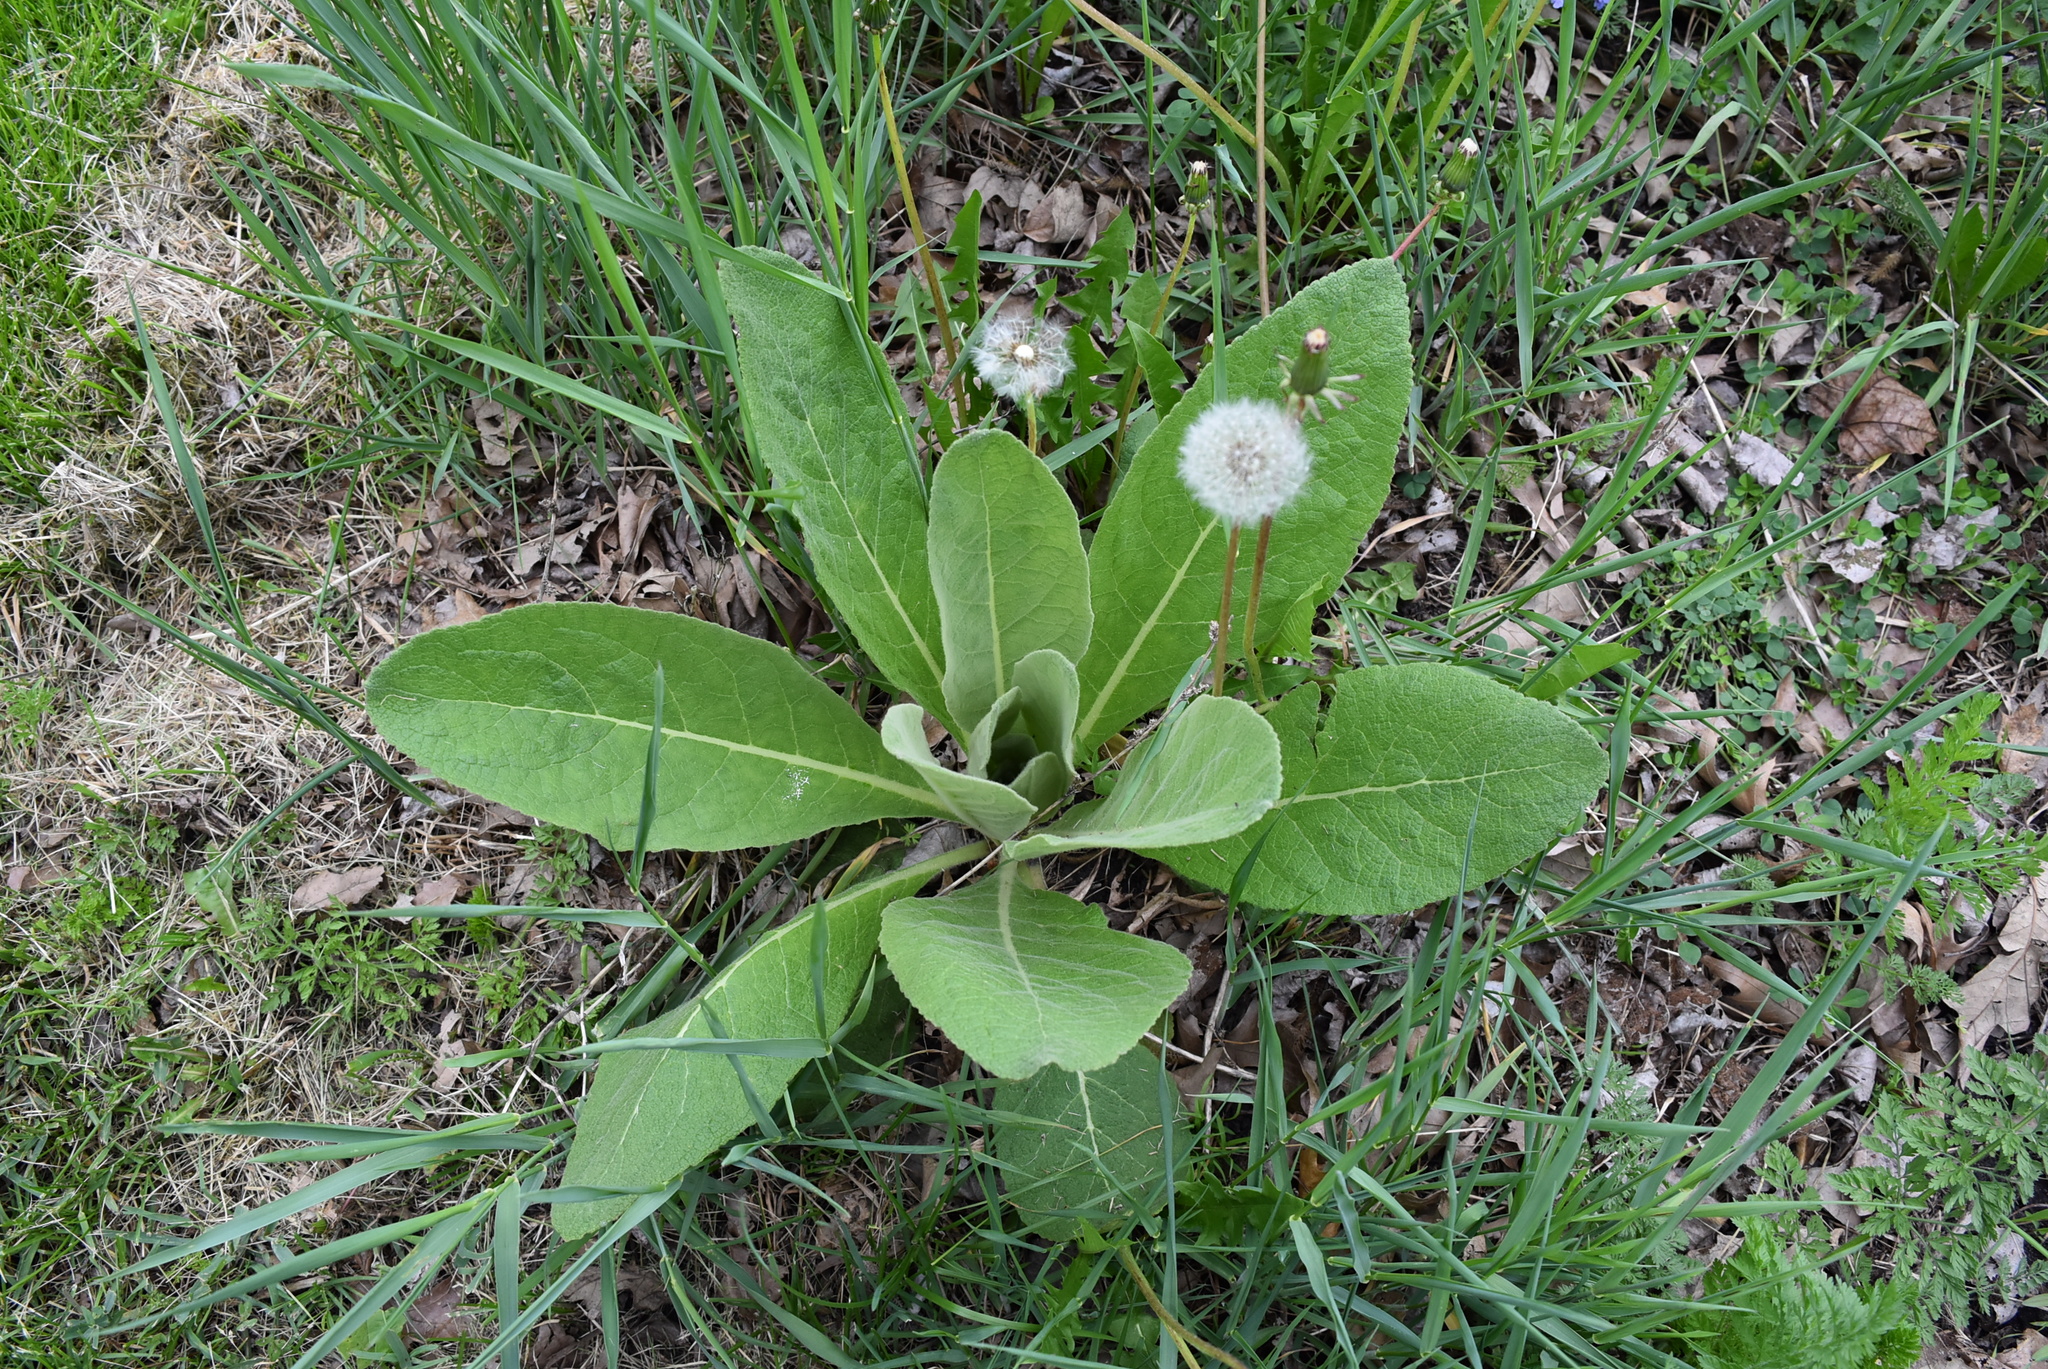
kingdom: Plantae
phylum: Tracheophyta
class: Magnoliopsida
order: Lamiales
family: Scrophulariaceae
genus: Verbascum
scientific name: Verbascum thapsus
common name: Common mullein
